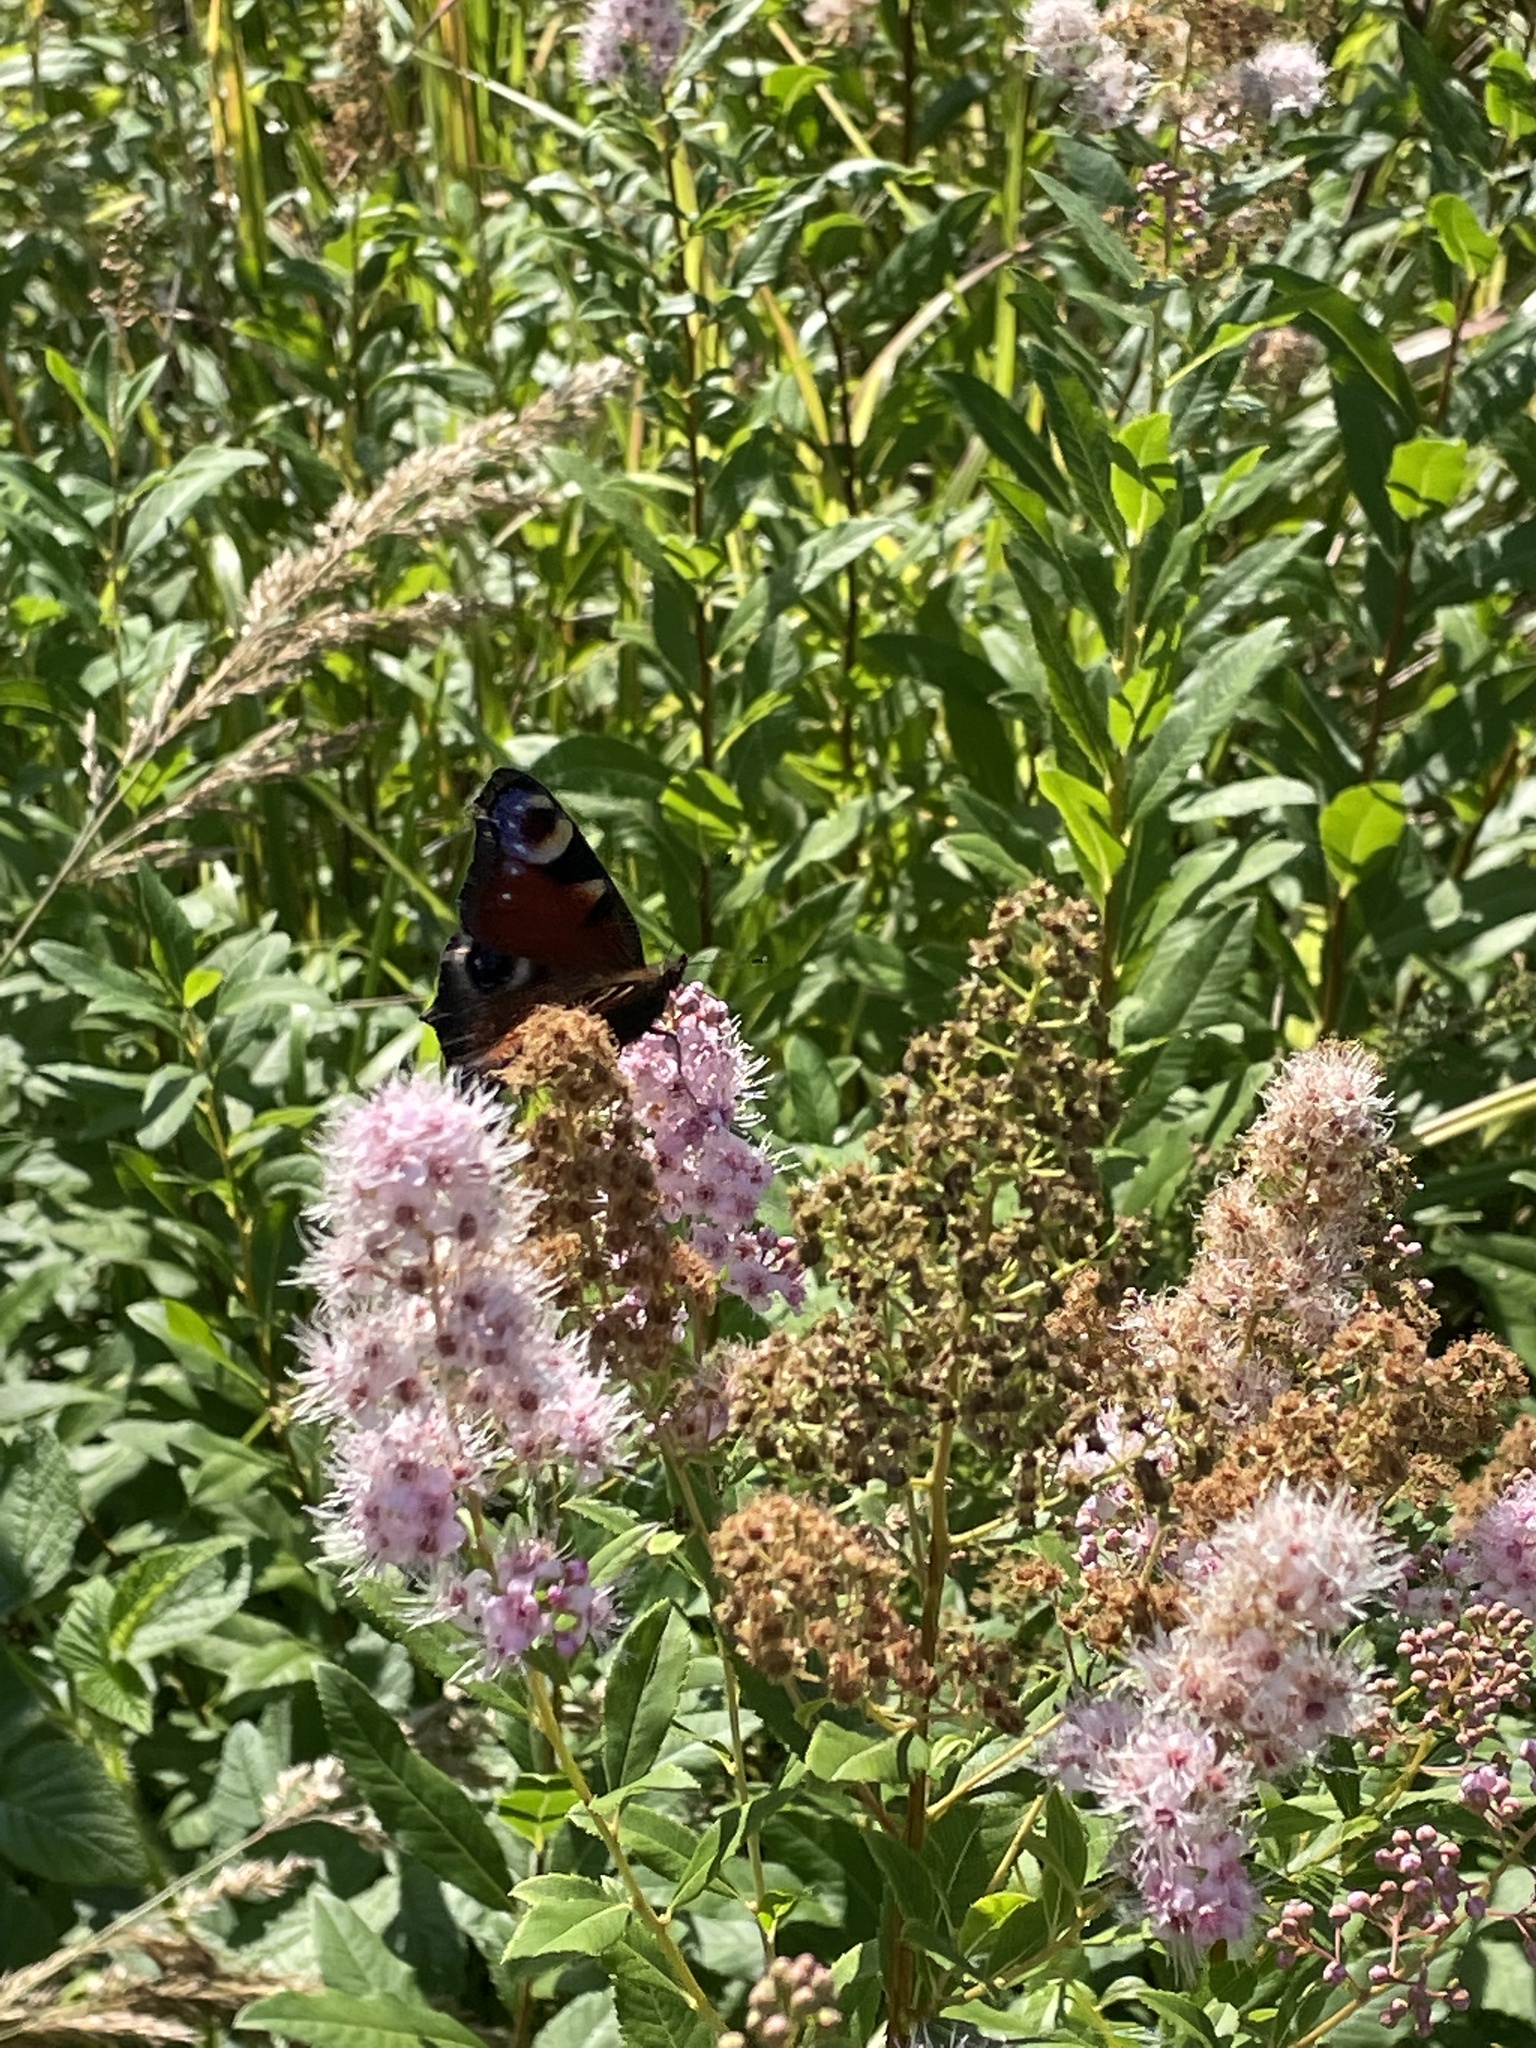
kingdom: Animalia
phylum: Arthropoda
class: Insecta
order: Lepidoptera
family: Nymphalidae
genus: Aglais
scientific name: Aglais io
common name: Peacock
